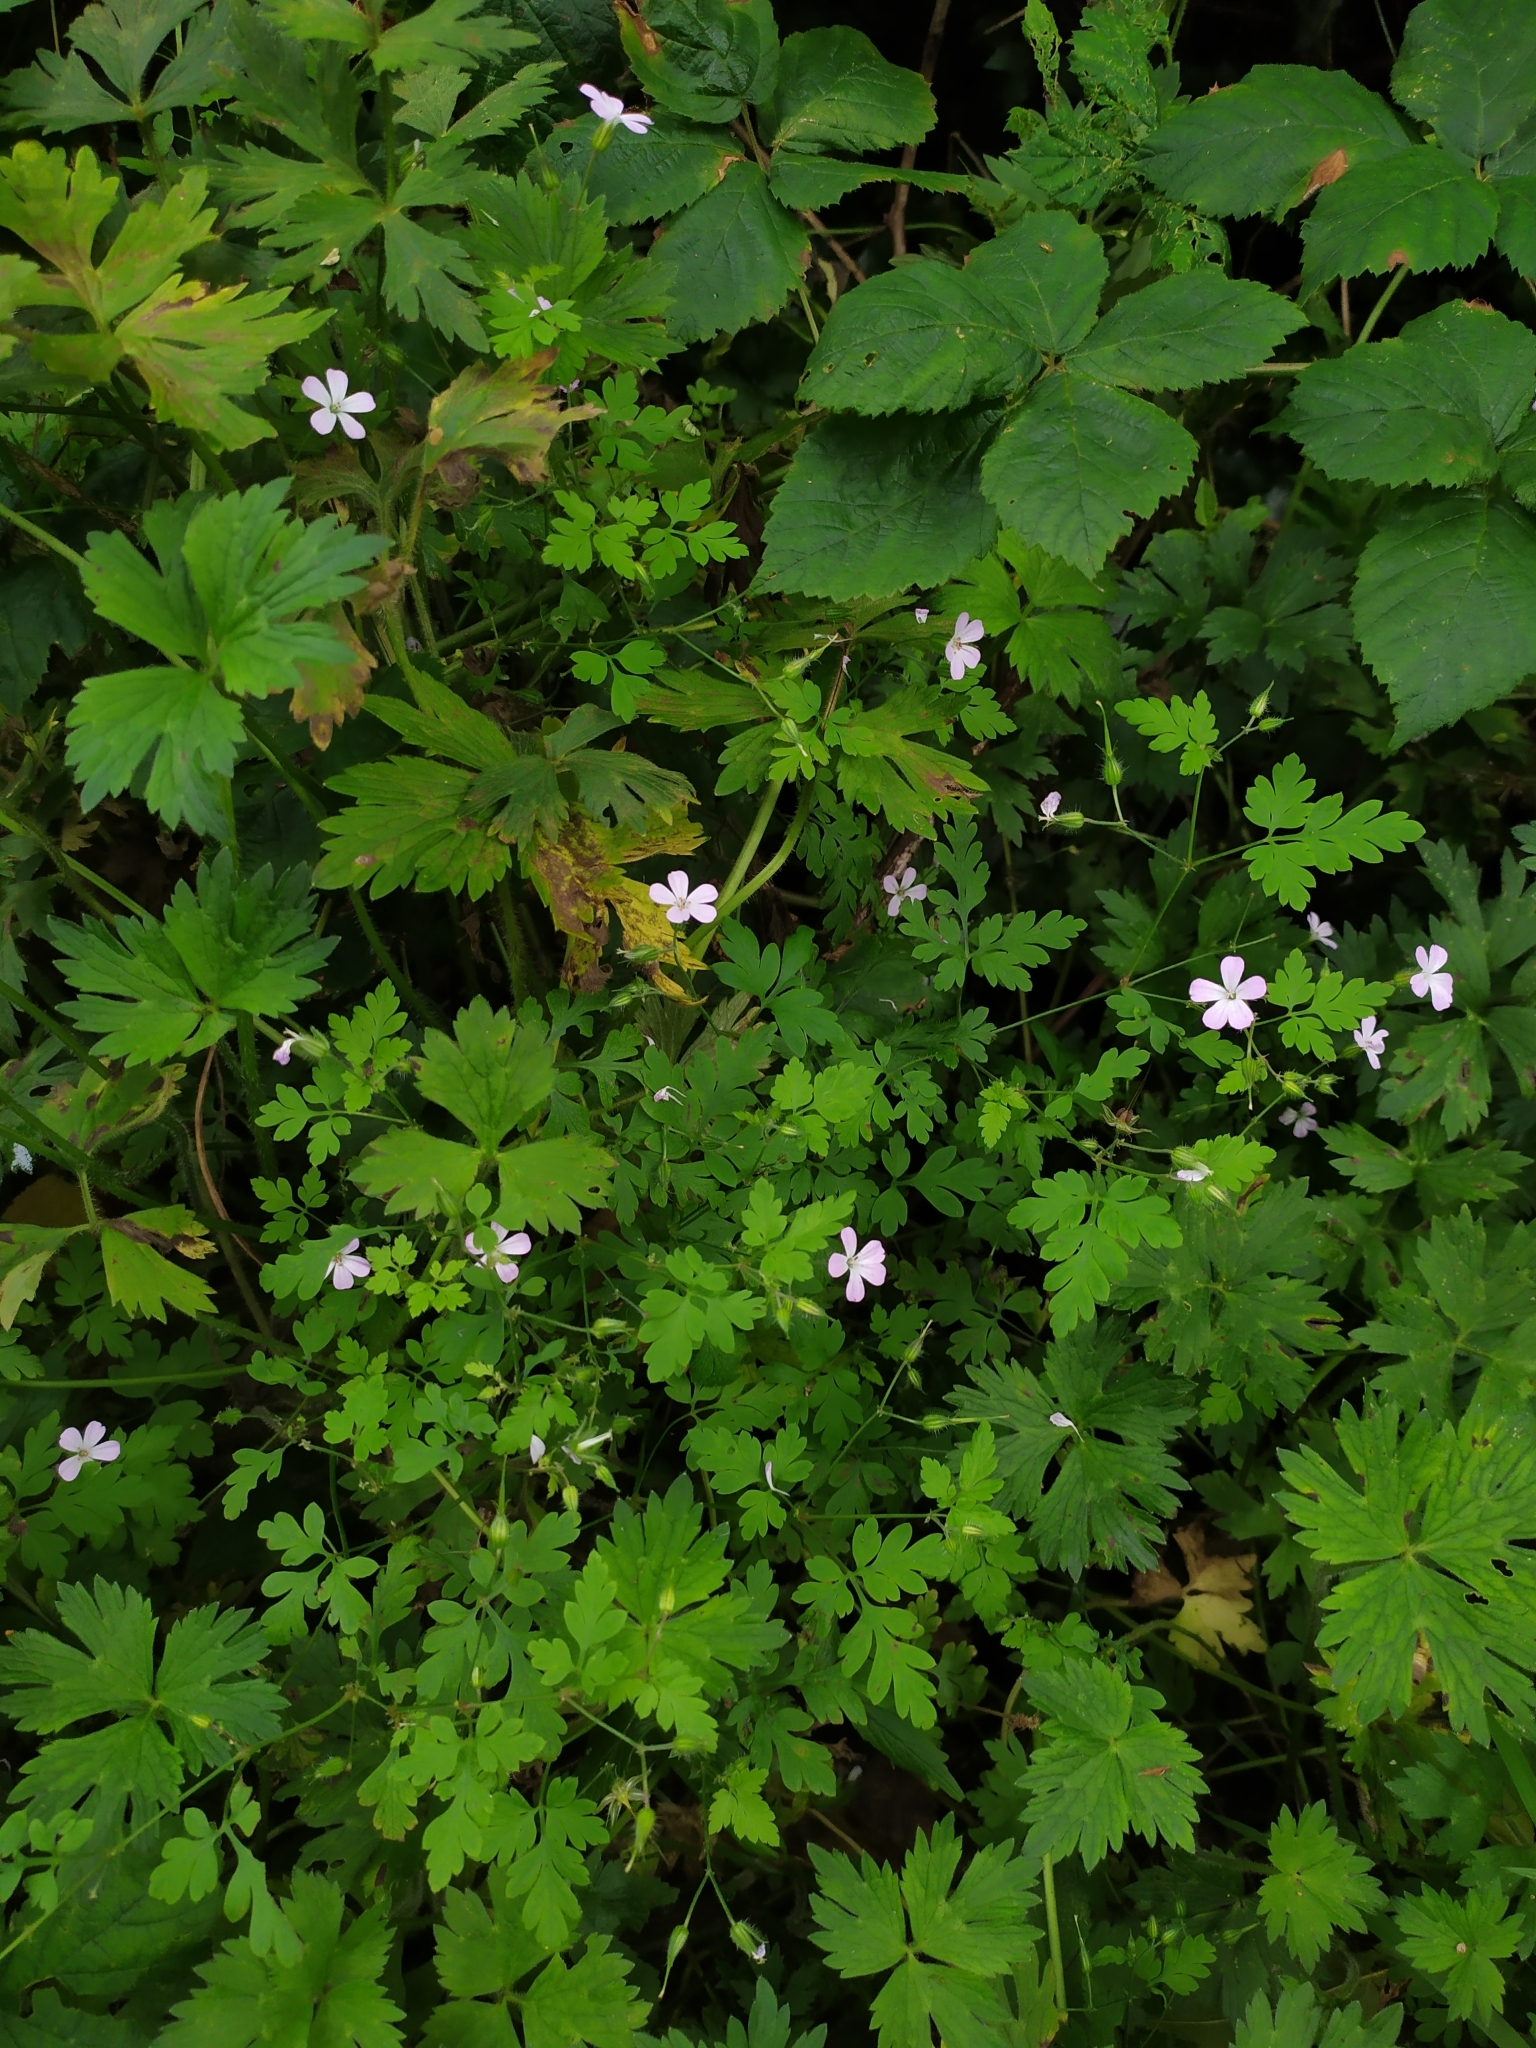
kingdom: Plantae
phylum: Tracheophyta
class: Magnoliopsida
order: Geraniales
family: Geraniaceae
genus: Geranium
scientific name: Geranium robertianum
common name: Herb-robert
